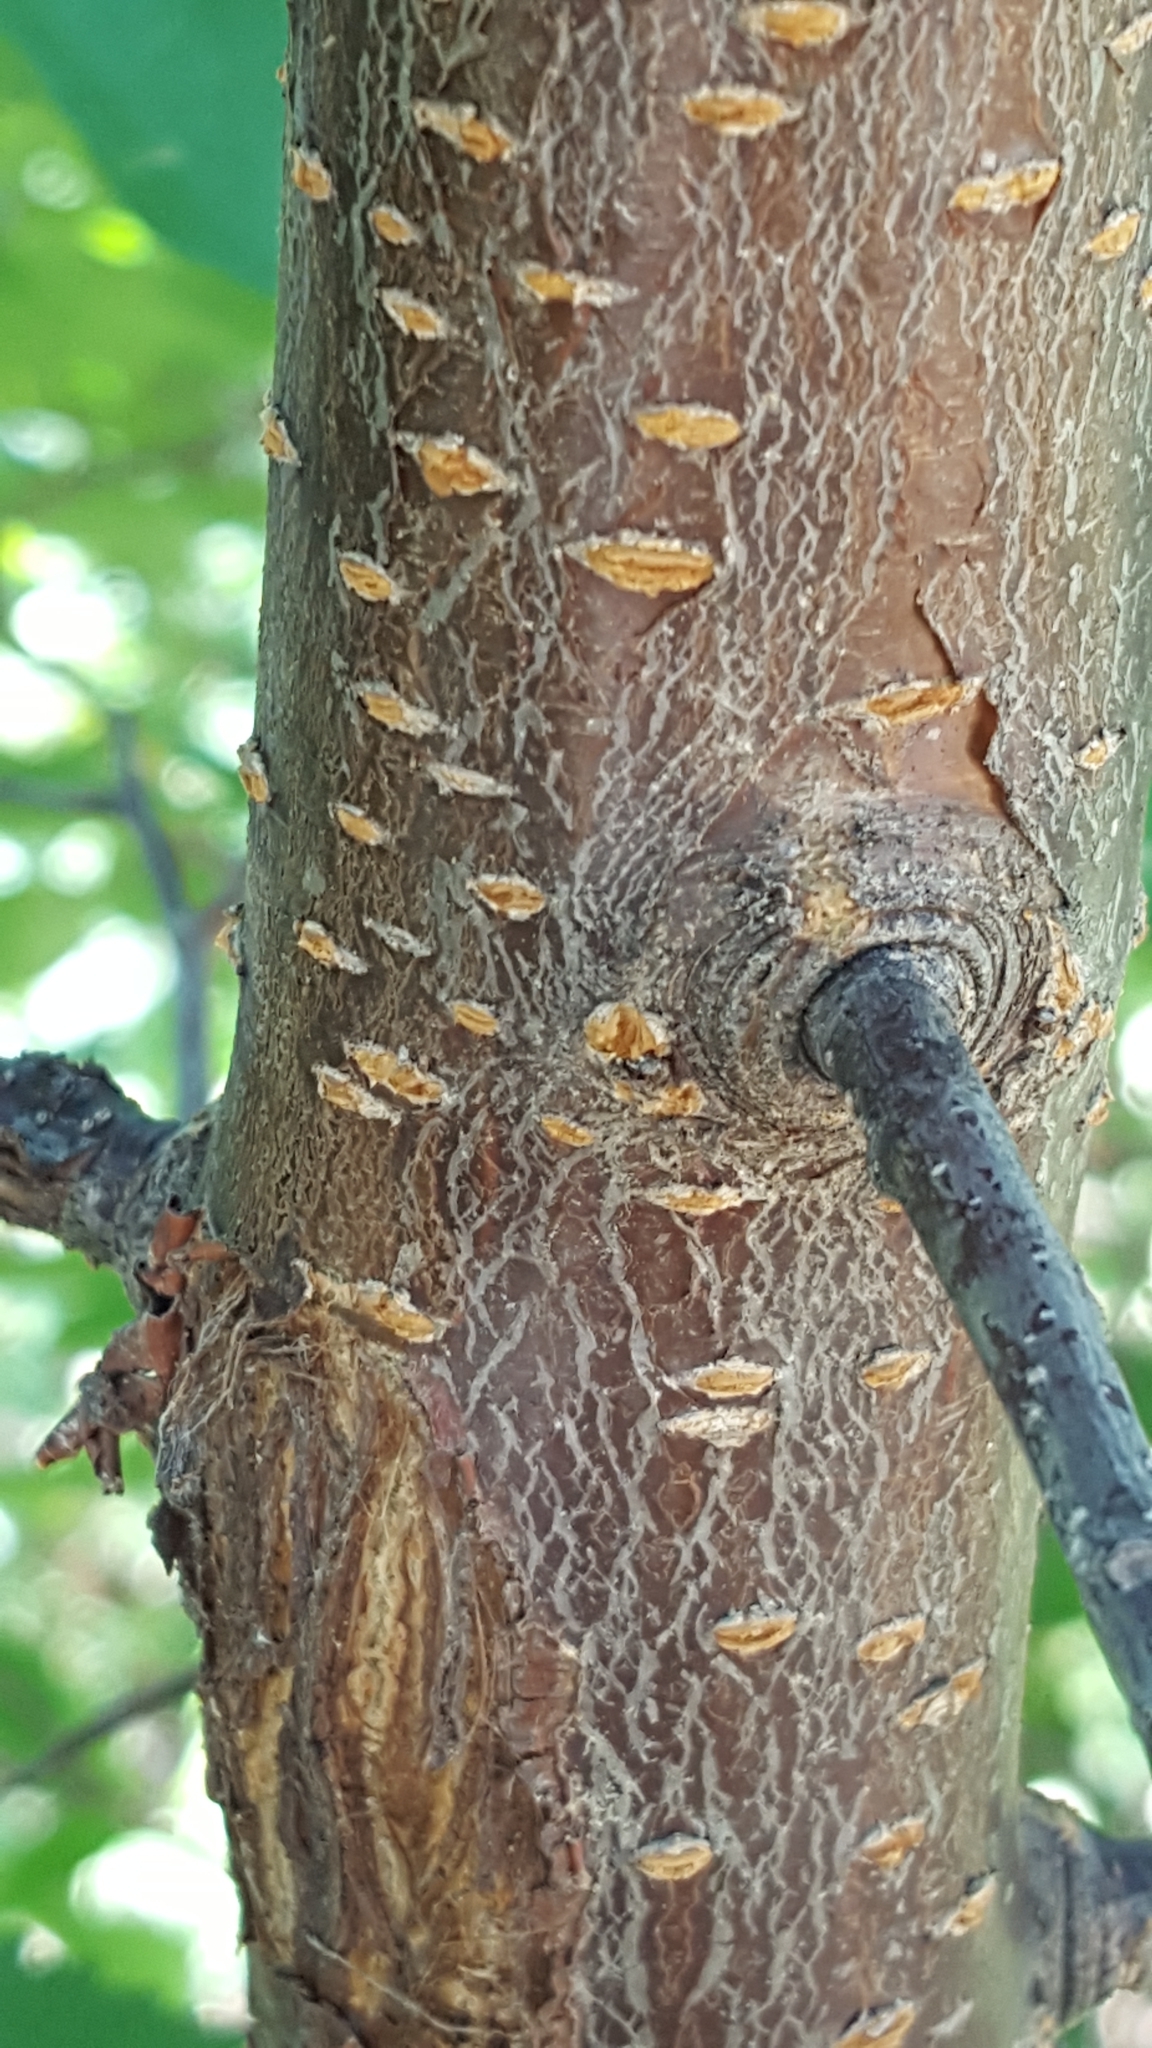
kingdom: Plantae
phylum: Tracheophyta
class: Magnoliopsida
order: Rosales
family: Rosaceae
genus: Prunus
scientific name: Prunus americana
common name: American plum
